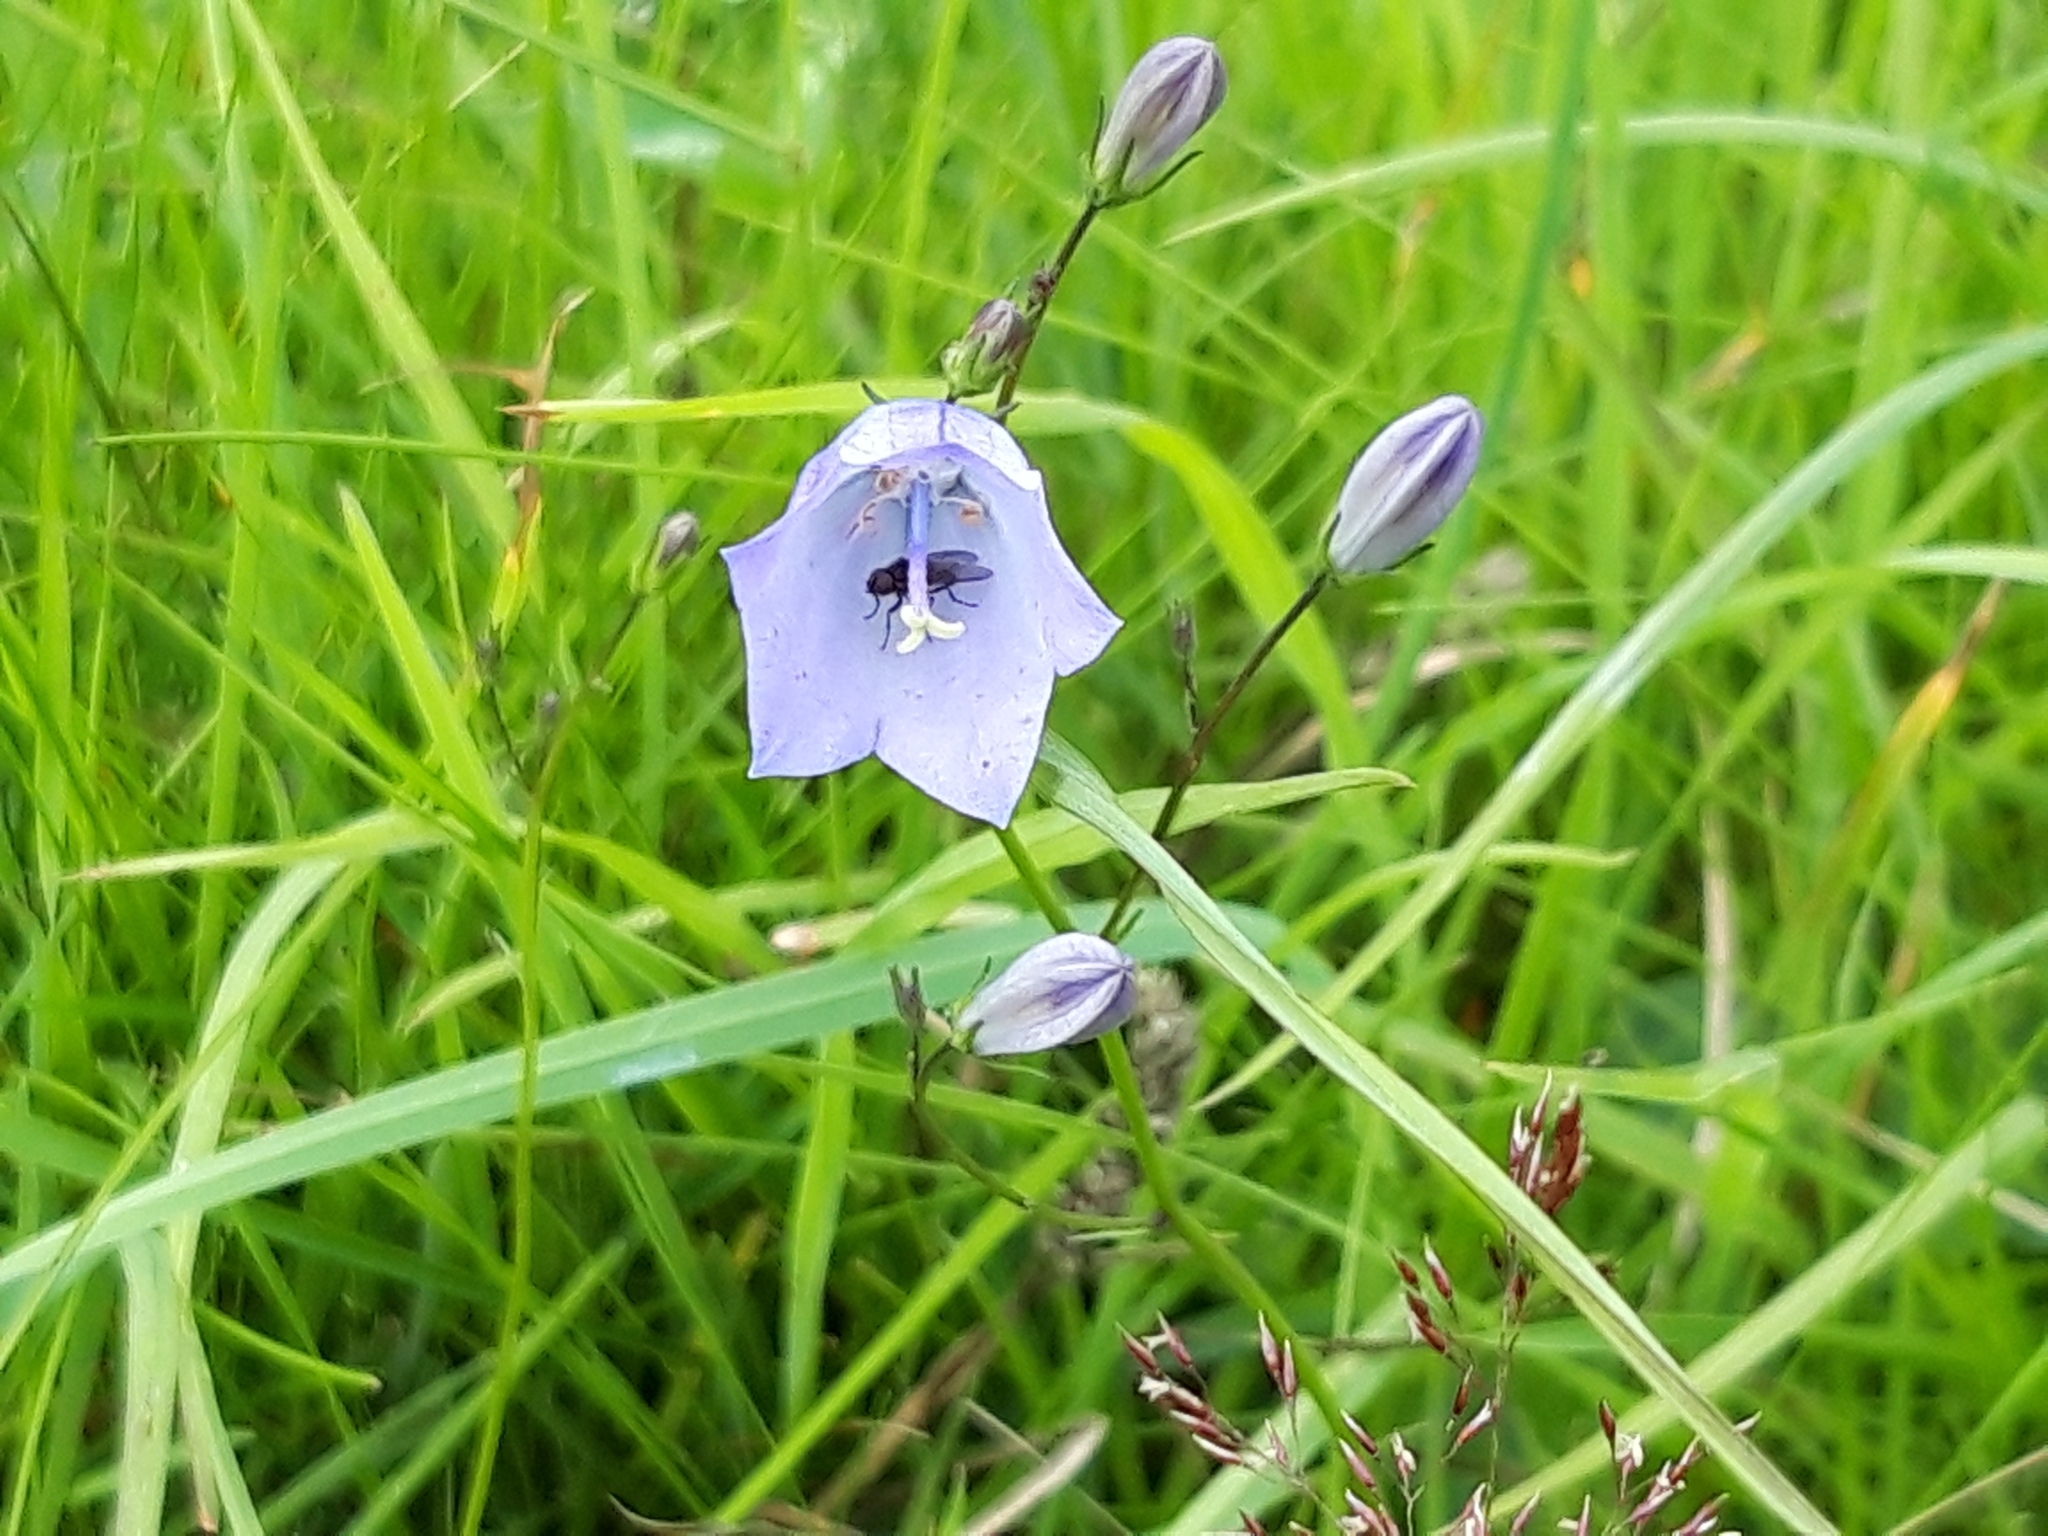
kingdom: Plantae
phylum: Tracheophyta
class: Magnoliopsida
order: Asterales
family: Campanulaceae
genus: Campanula
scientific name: Campanula rotundifolia
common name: Harebell
